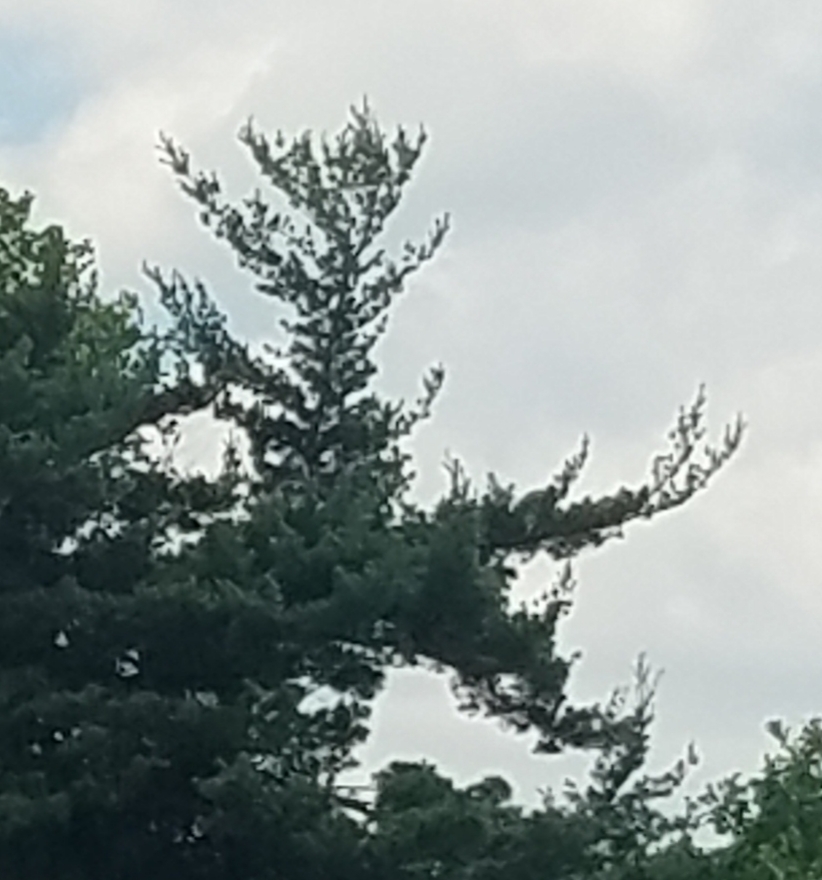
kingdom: Plantae
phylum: Tracheophyta
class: Pinopsida
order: Pinales
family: Pinaceae
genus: Pinus
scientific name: Pinus strobus
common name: Weymouth pine
